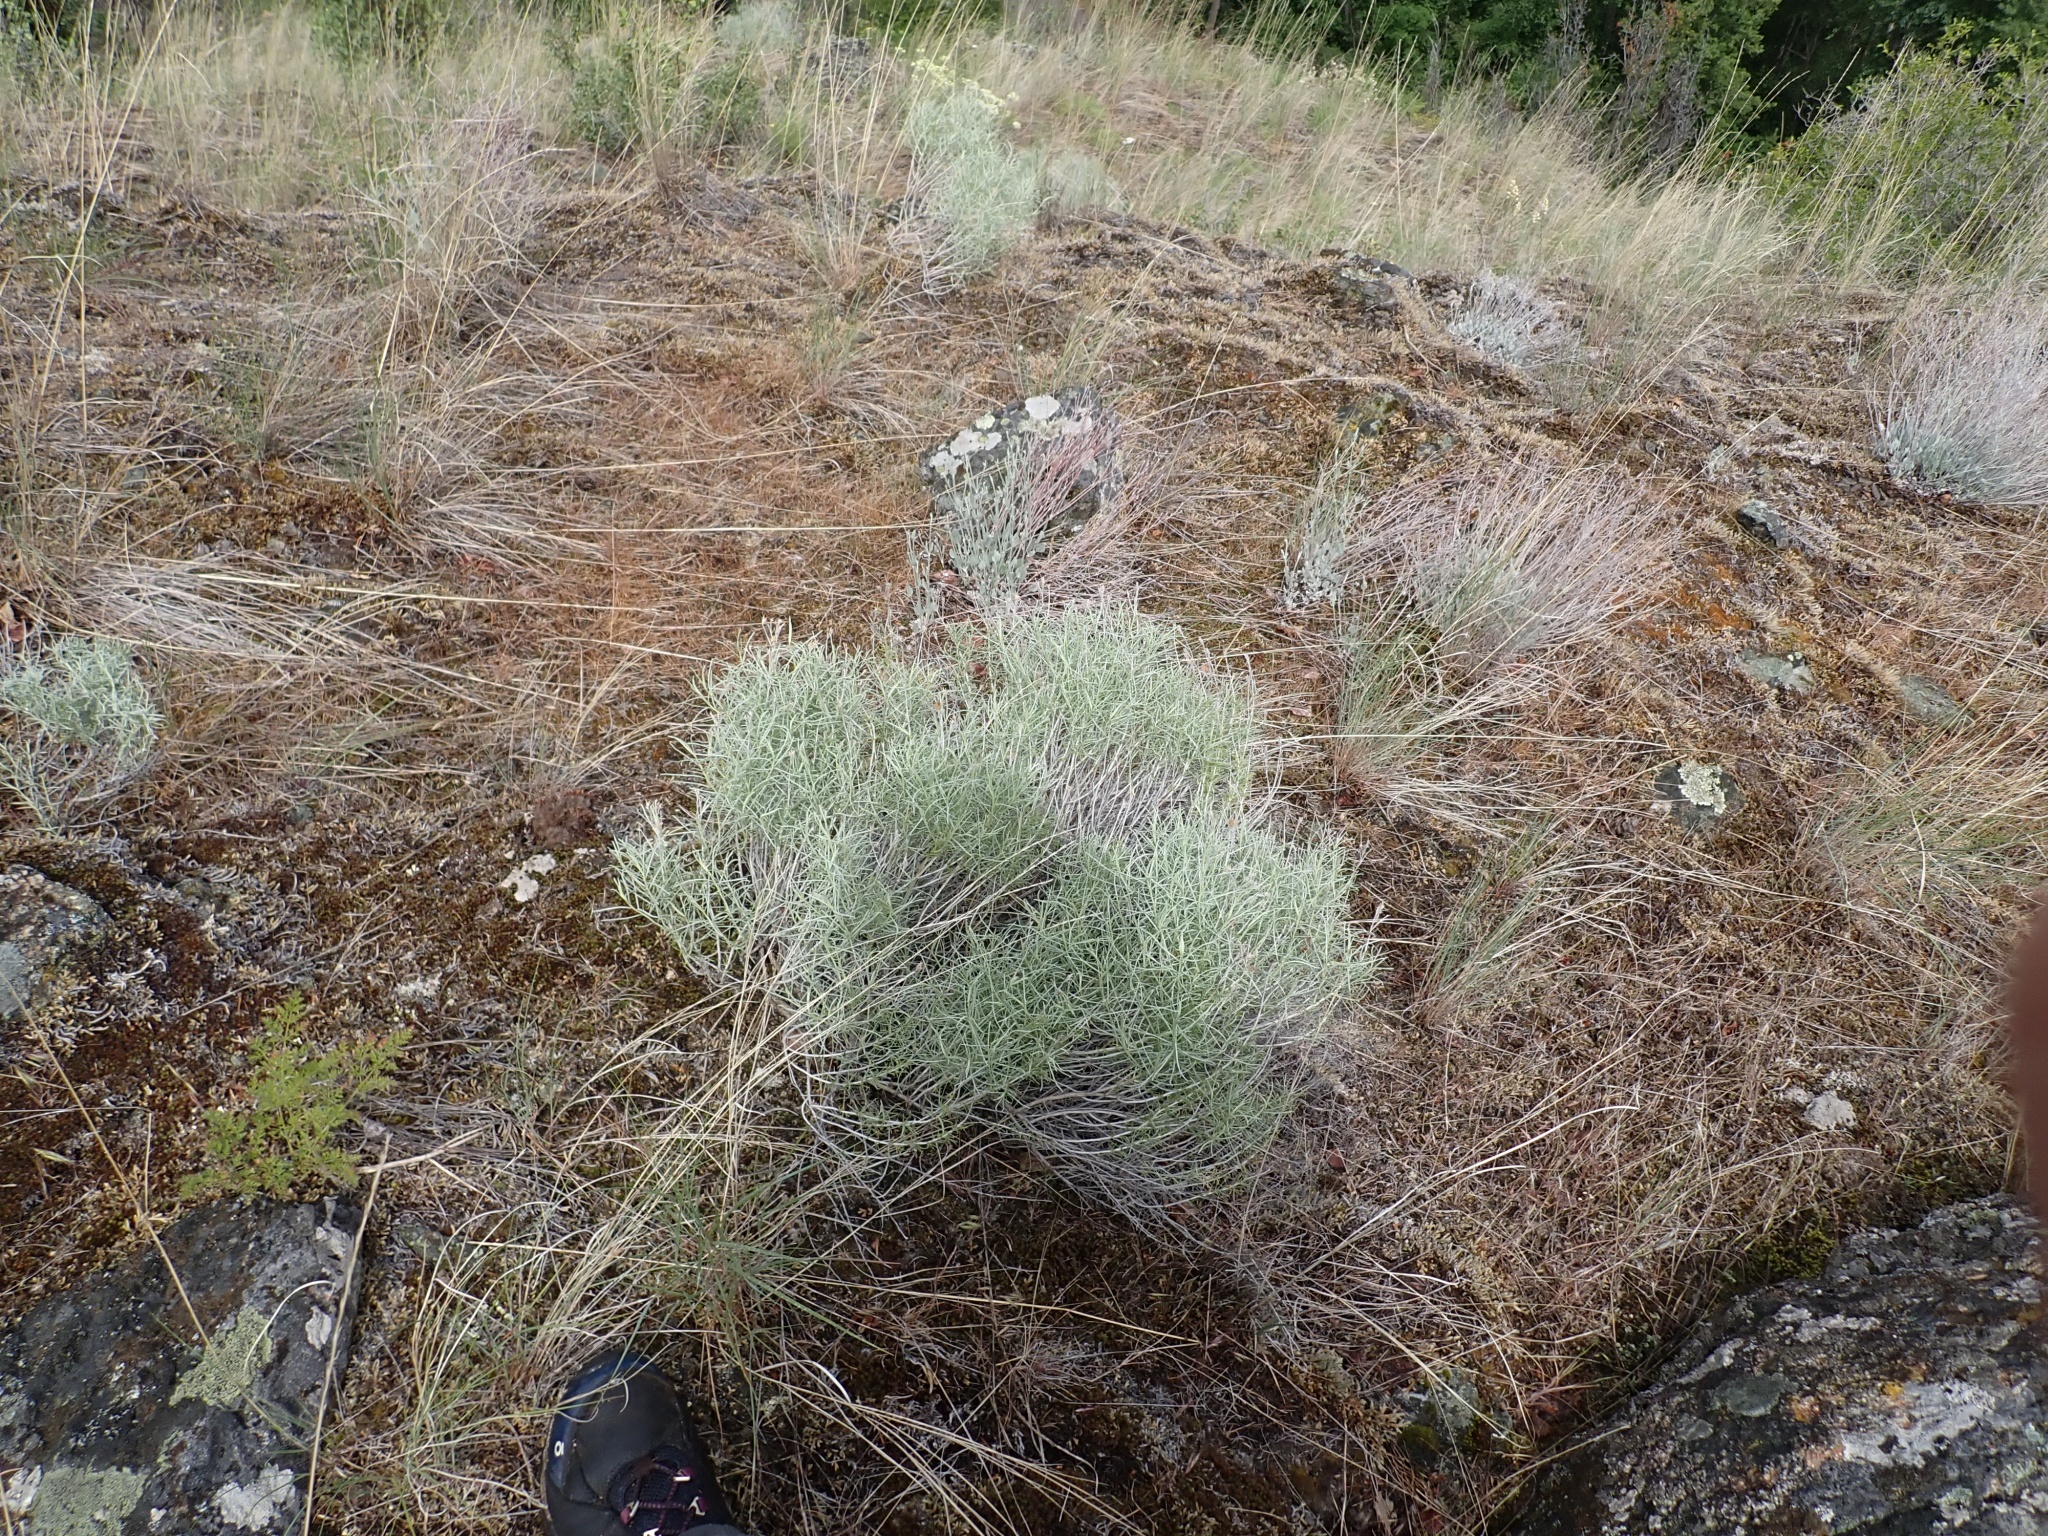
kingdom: Plantae
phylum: Tracheophyta
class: Magnoliopsida
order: Asterales
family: Asteraceae
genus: Ericameria
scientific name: Ericameria nauseosa
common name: Rubber rabbitbrush
